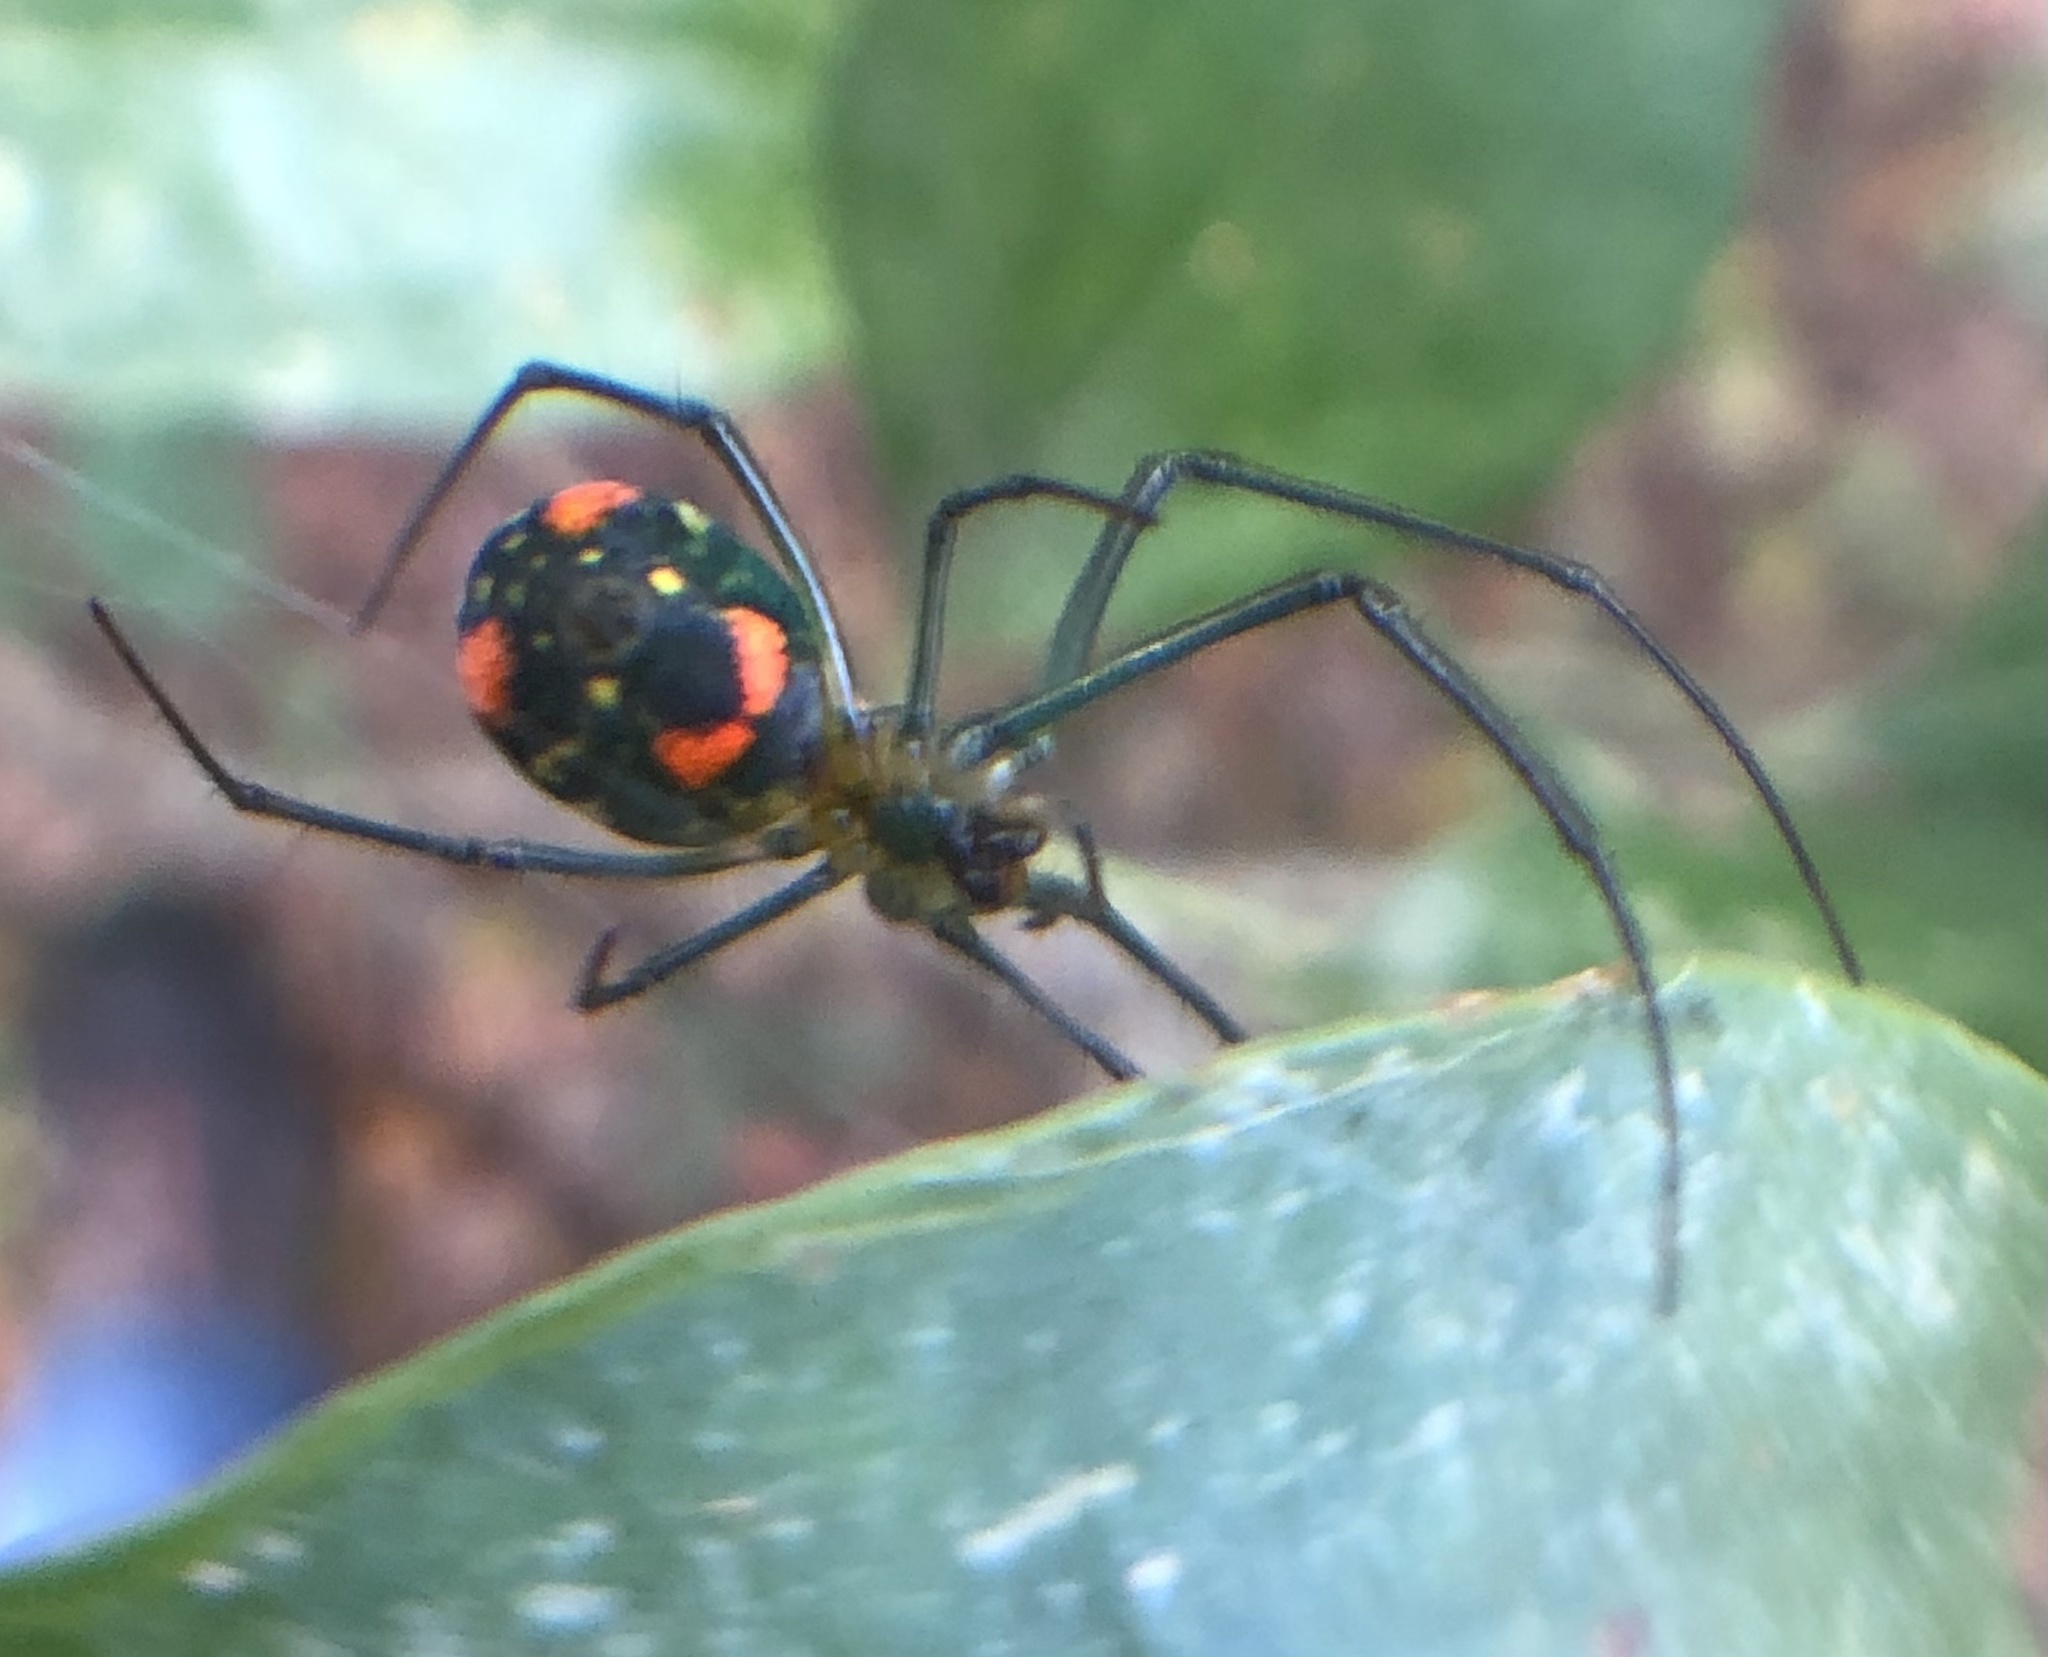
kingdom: Animalia
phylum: Arthropoda
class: Arachnida
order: Araneae
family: Tetragnathidae
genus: Leucauge
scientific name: Leucauge argyrobapta
